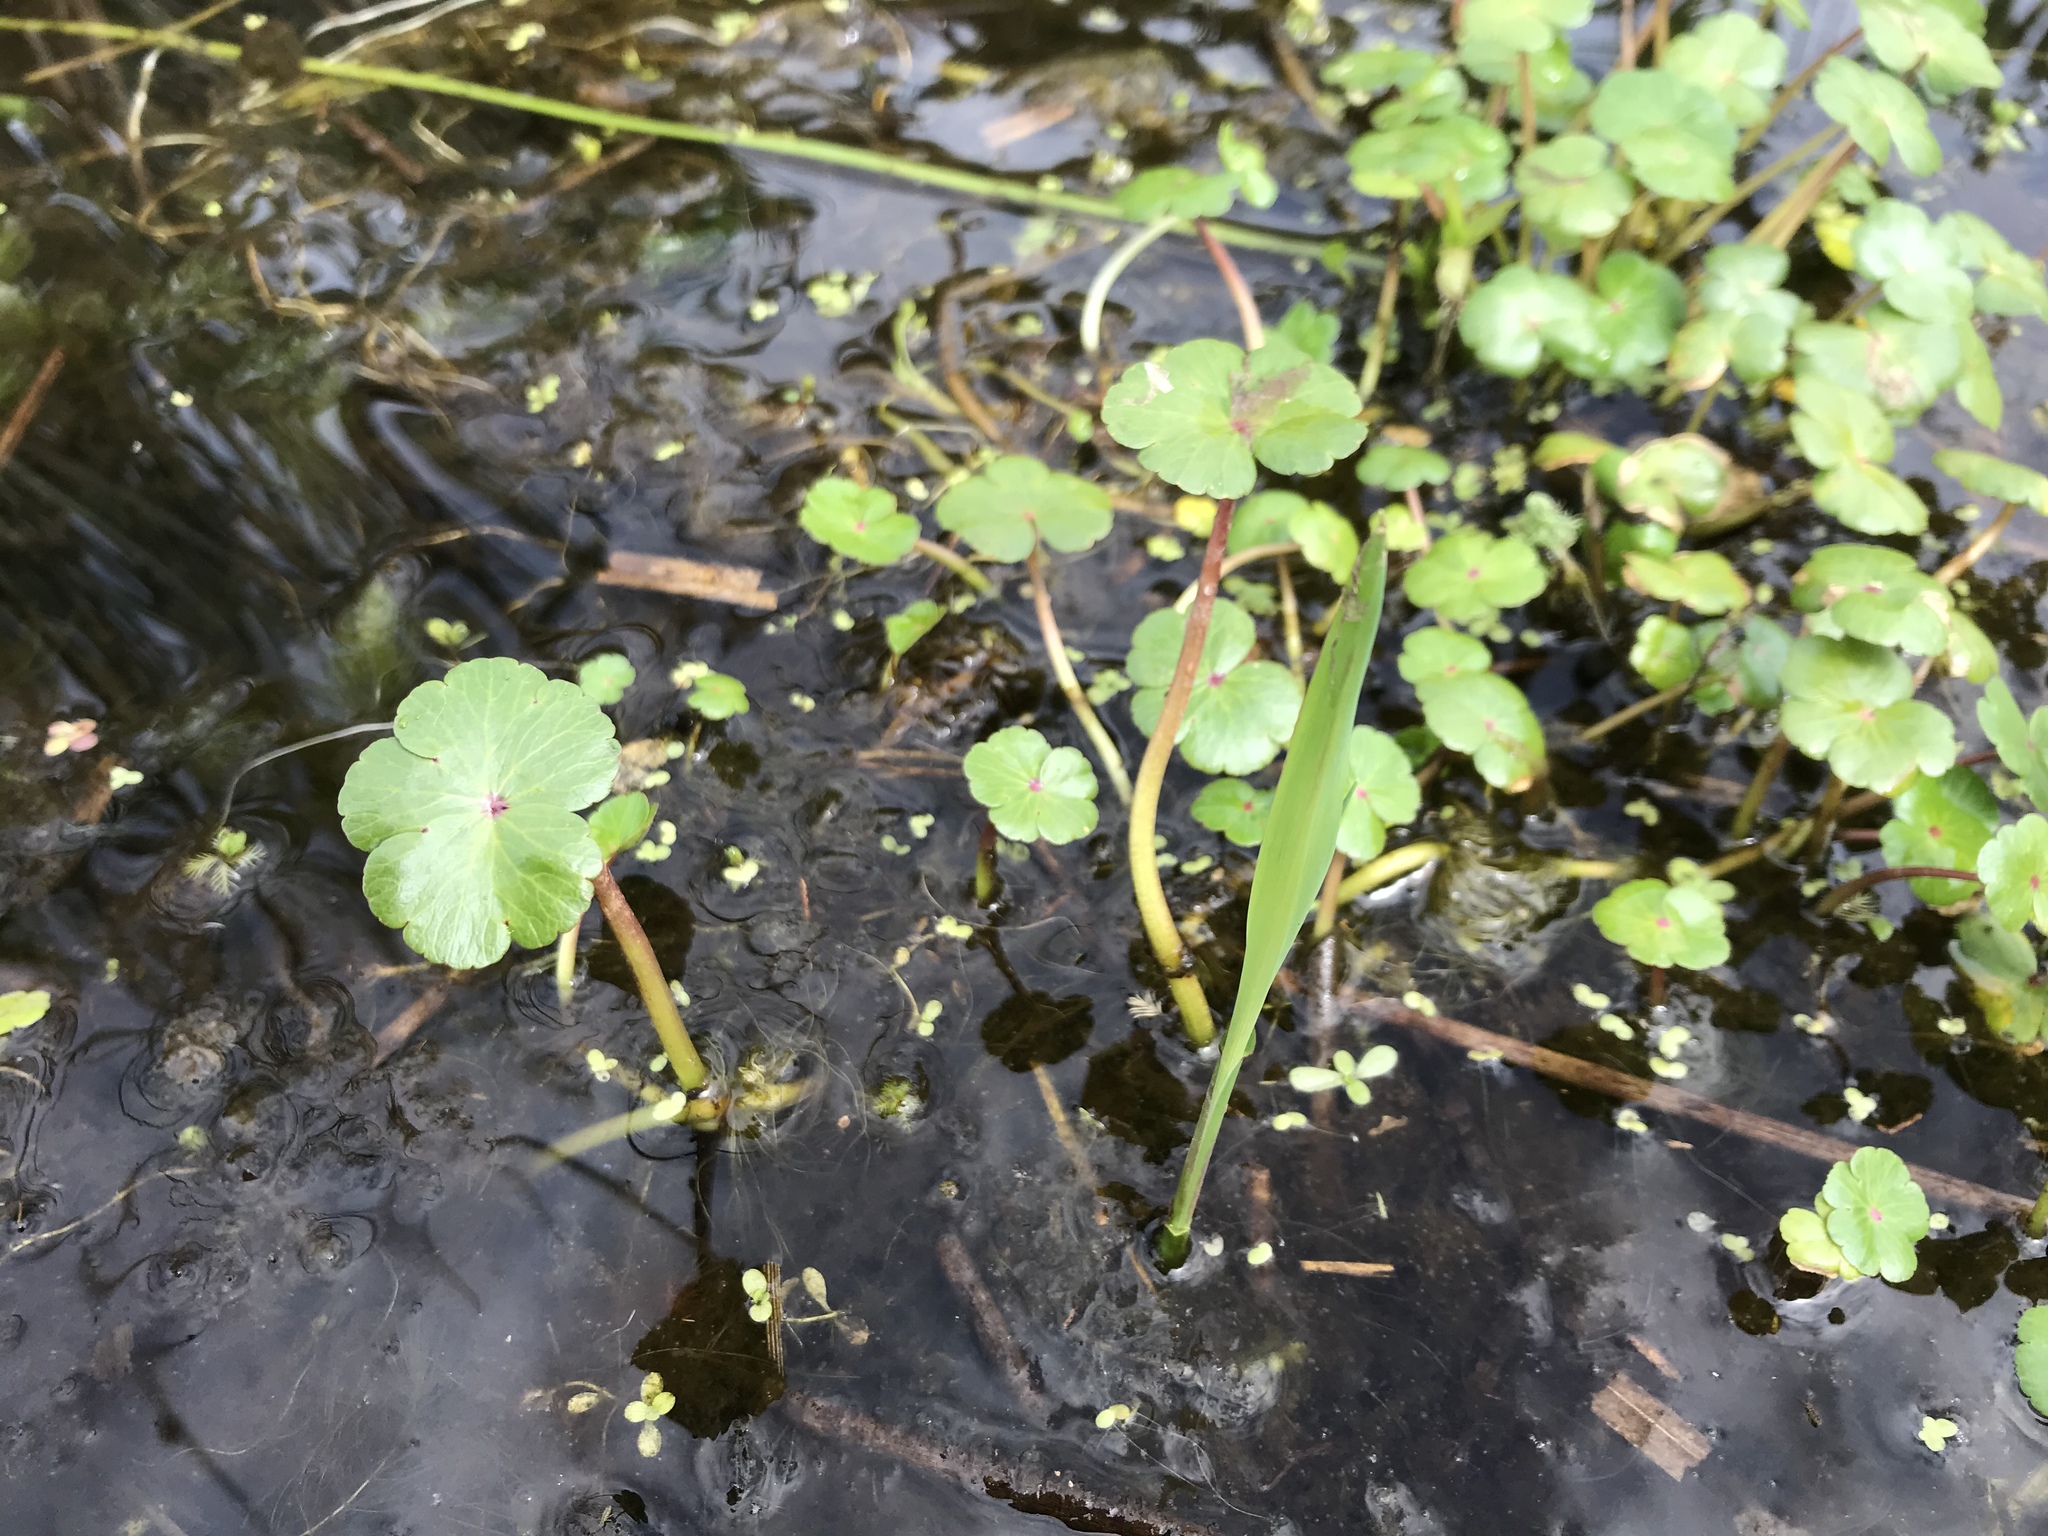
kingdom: Plantae
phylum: Tracheophyta
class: Magnoliopsida
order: Apiales
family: Araliaceae
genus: Hydrocotyle
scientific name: Hydrocotyle ranunculoides
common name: Floating pennywort
